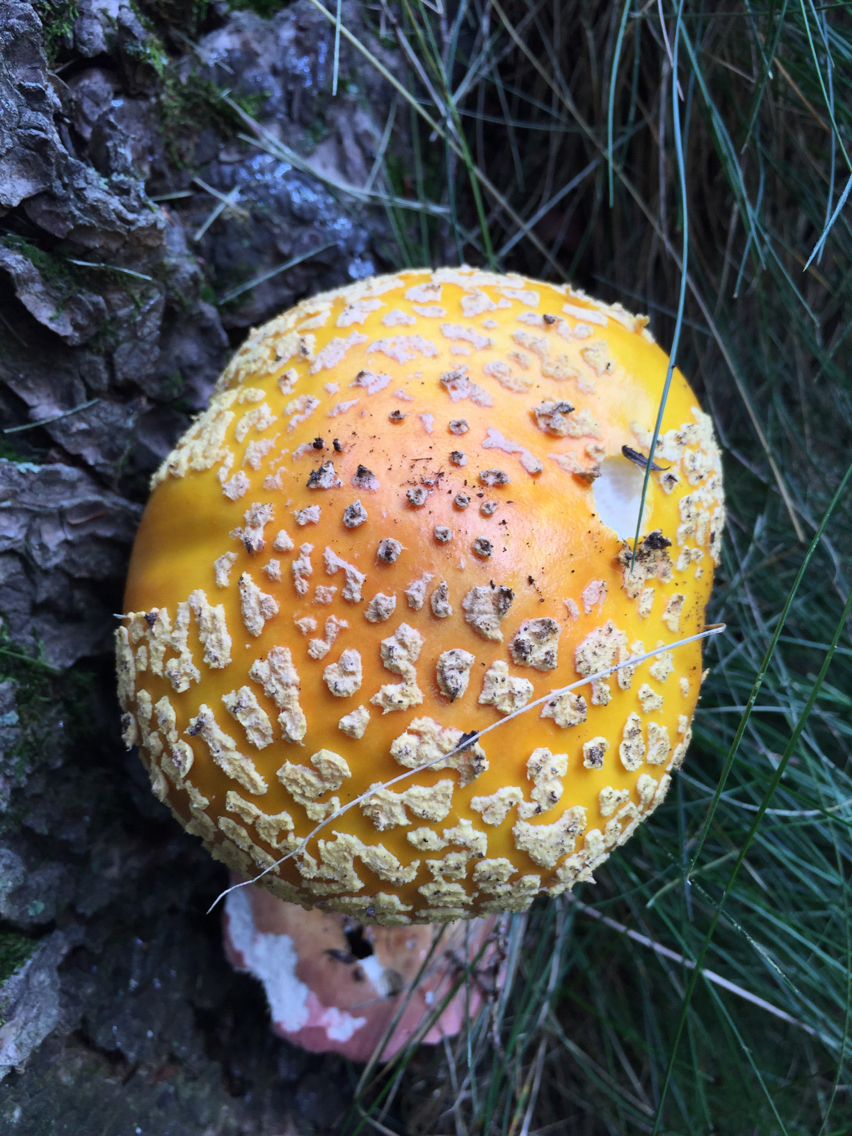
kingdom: Fungi
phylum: Basidiomycota
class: Agaricomycetes
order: Agaricales
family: Amanitaceae
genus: Amanita
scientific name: Amanita muscaria
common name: Fly agaric
